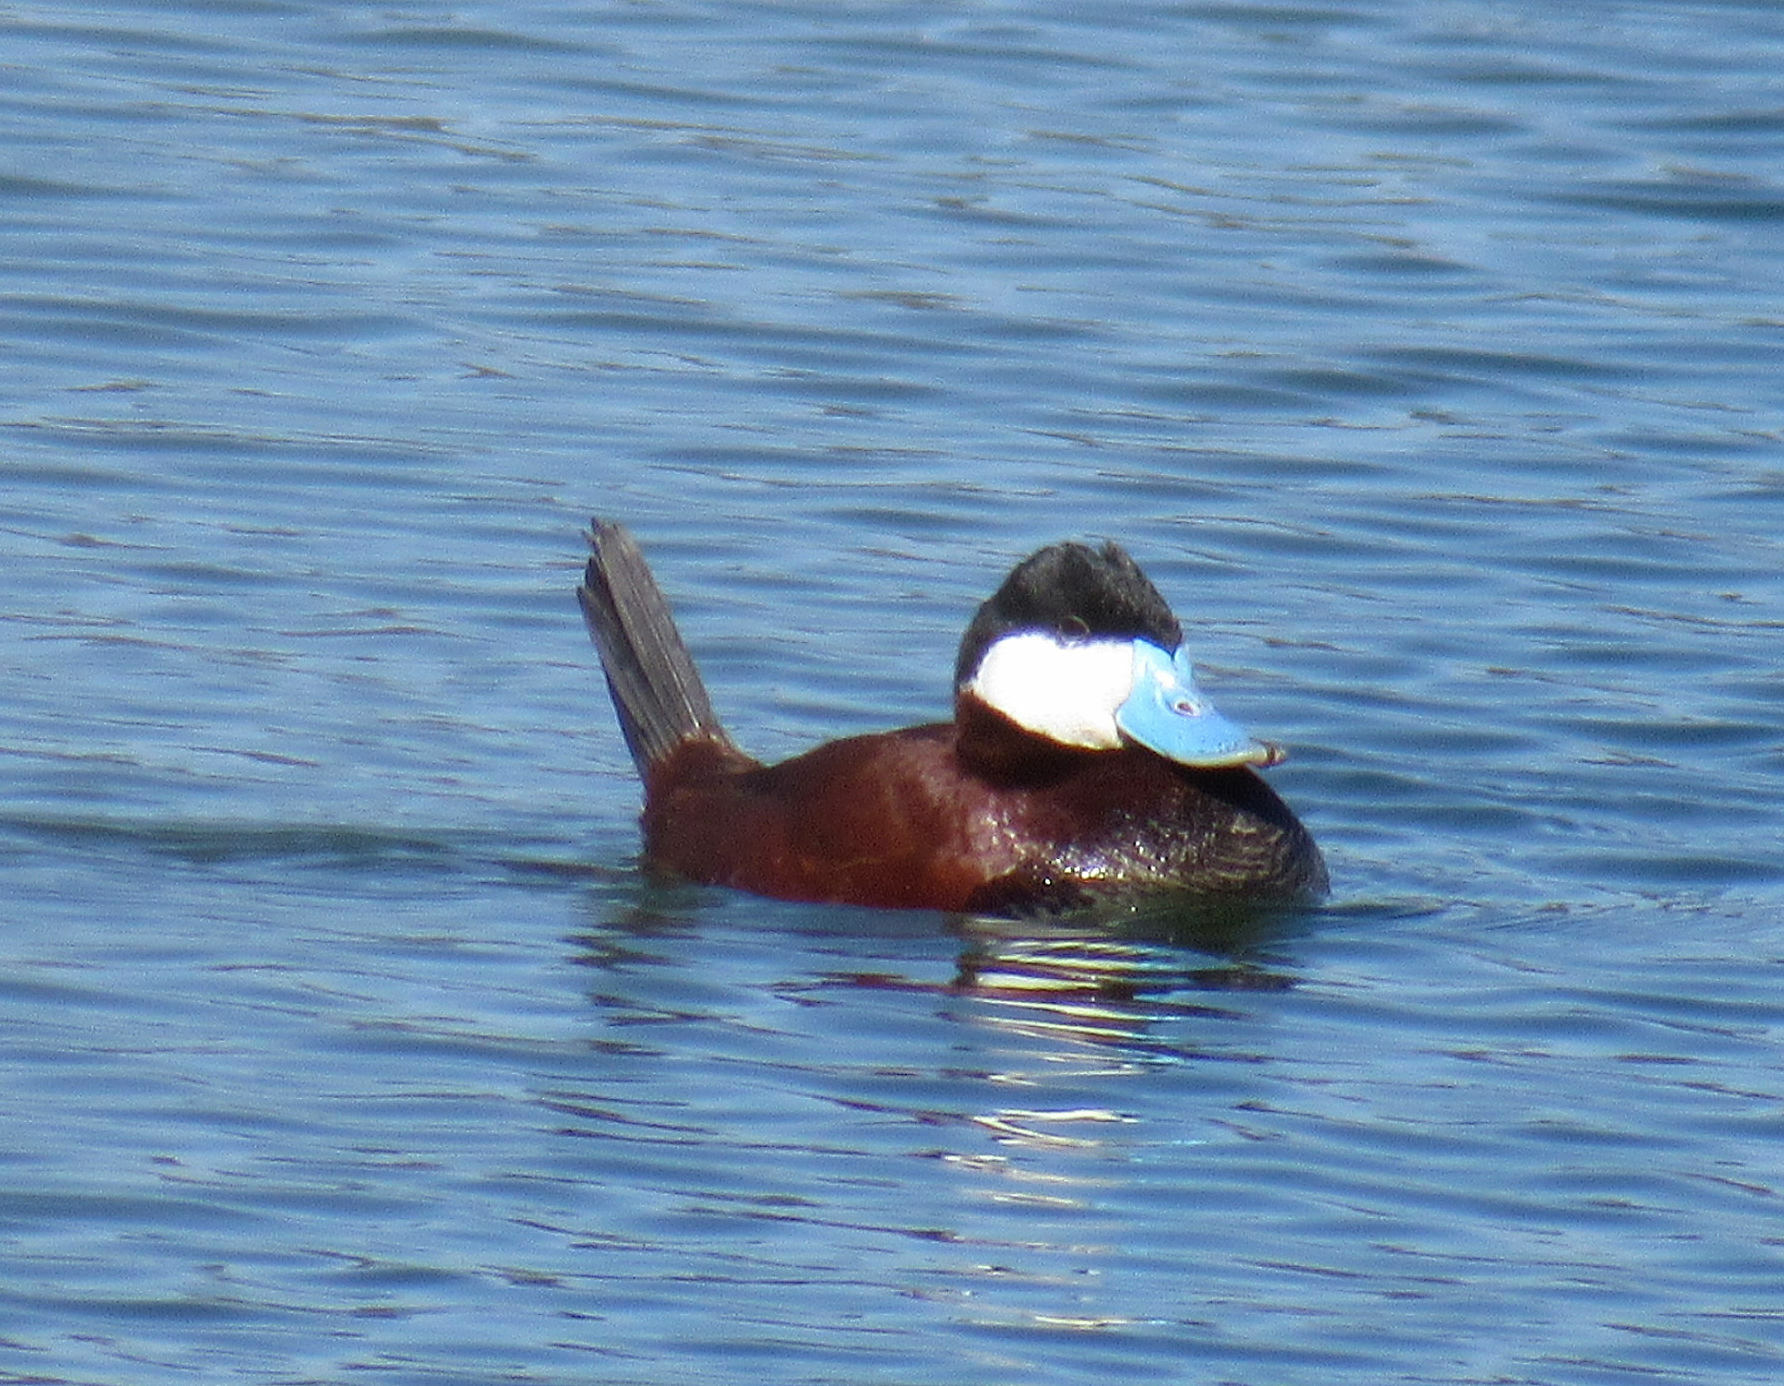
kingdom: Animalia
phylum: Chordata
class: Aves
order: Anseriformes
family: Anatidae
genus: Oxyura
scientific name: Oxyura jamaicensis
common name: Ruddy duck
